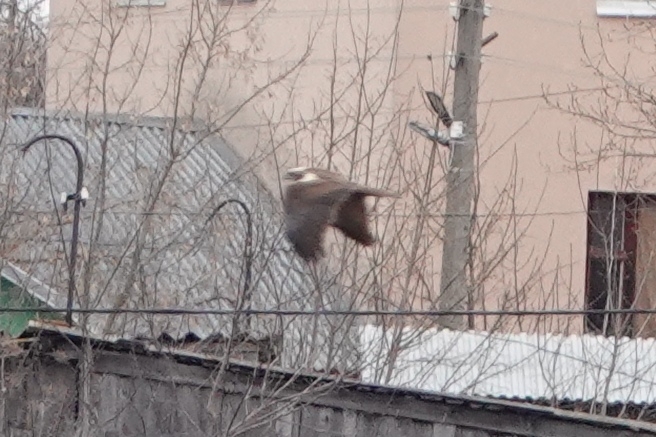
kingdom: Animalia
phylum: Chordata
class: Aves
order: Accipitriformes
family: Accipitridae
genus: Circus
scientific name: Circus aeruginosus
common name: Western marsh harrier
